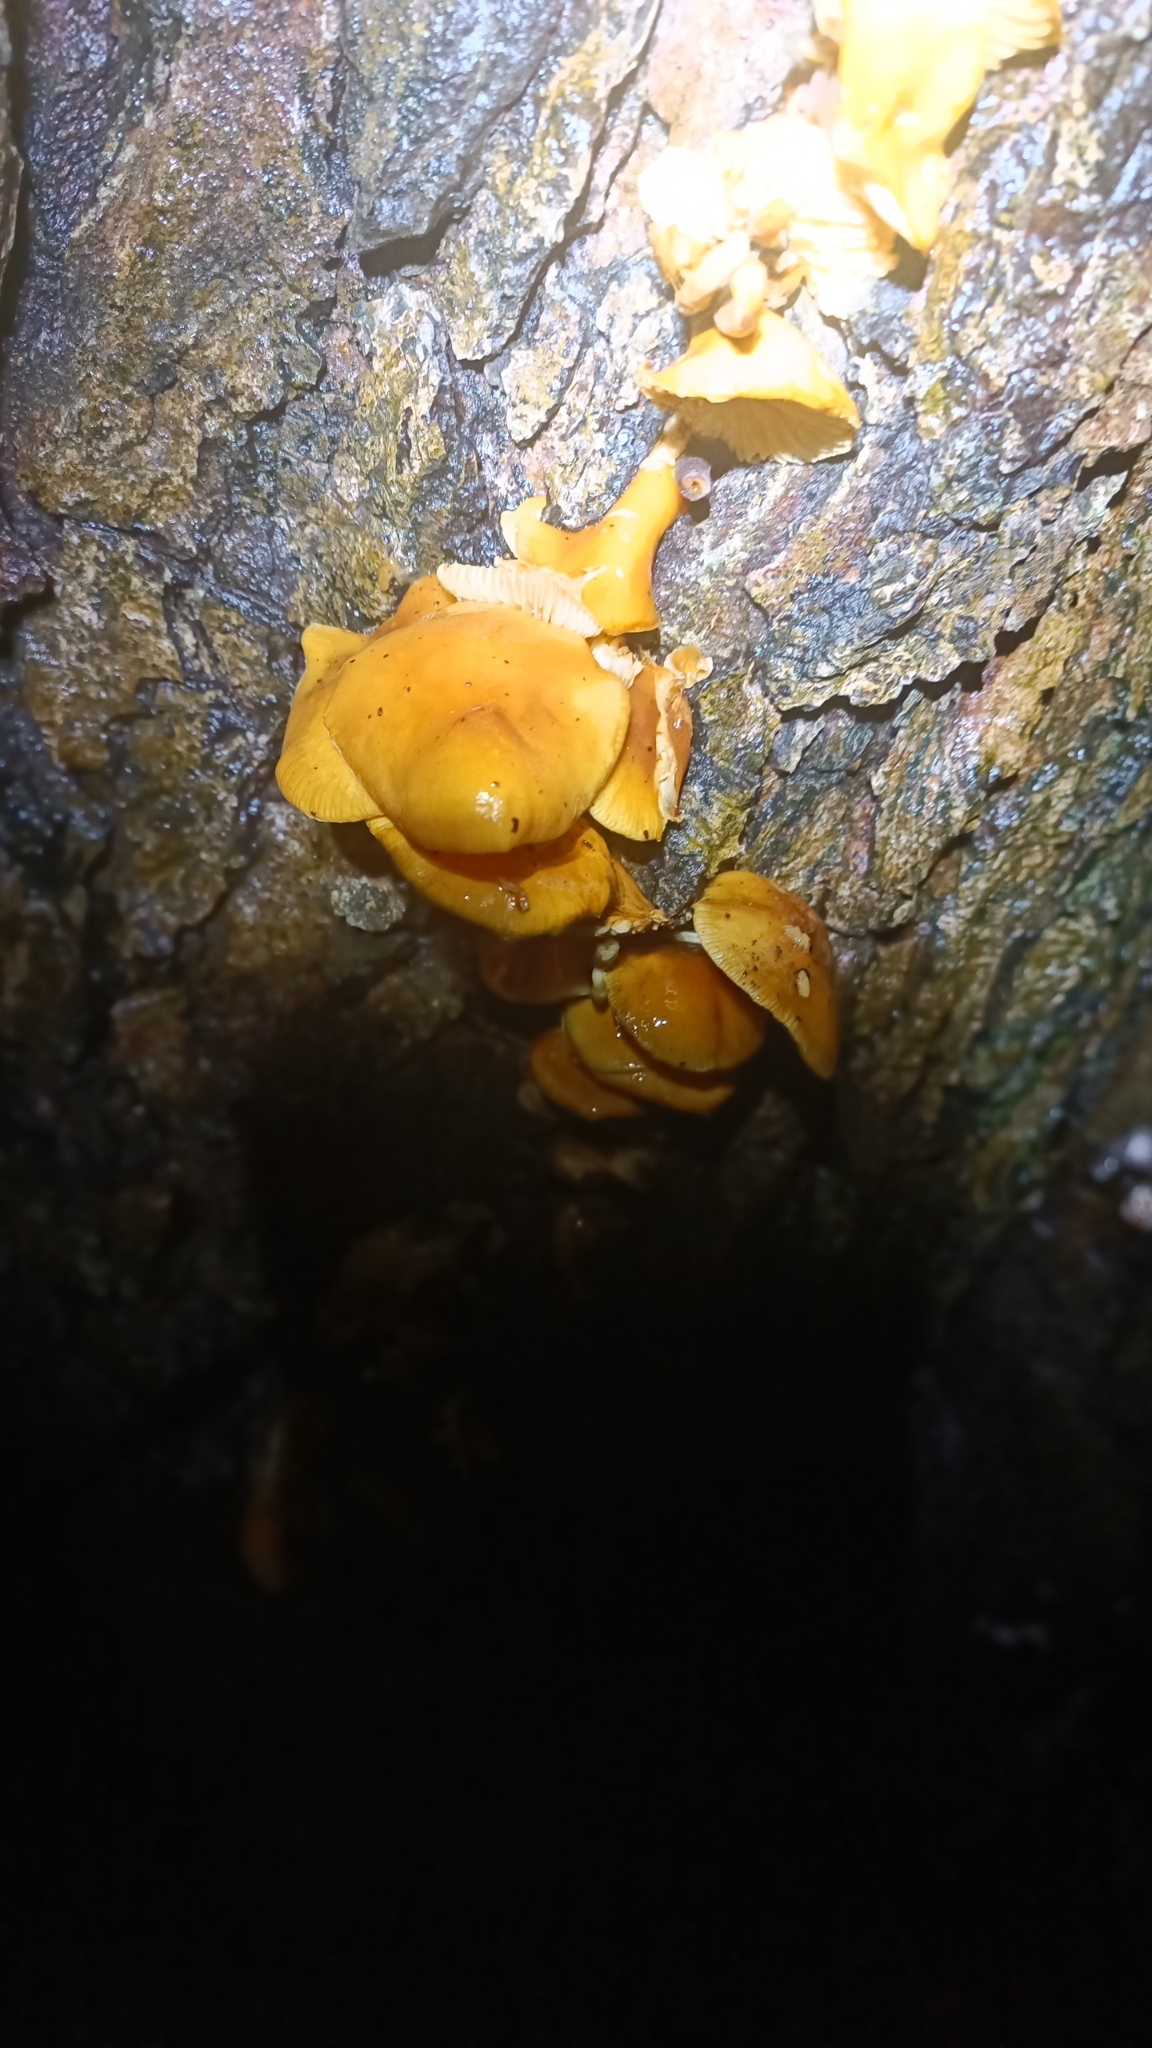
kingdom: Fungi
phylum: Basidiomycota
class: Agaricomycetes
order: Agaricales
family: Physalacriaceae
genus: Flammulina
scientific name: Flammulina
